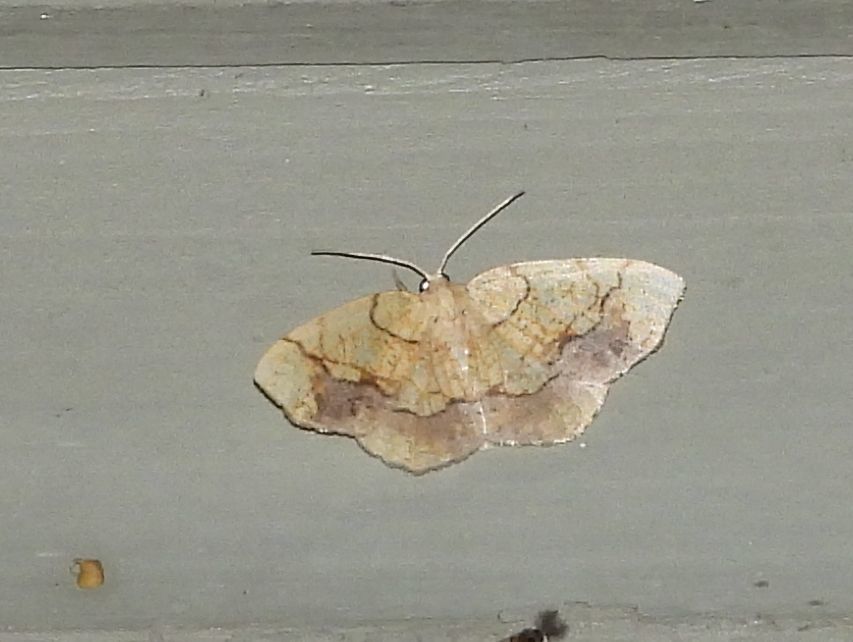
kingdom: Animalia
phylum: Arthropoda
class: Insecta
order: Lepidoptera
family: Geometridae
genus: Nematocampa
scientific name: Nematocampa resistaria
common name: Horned spanworm moth
